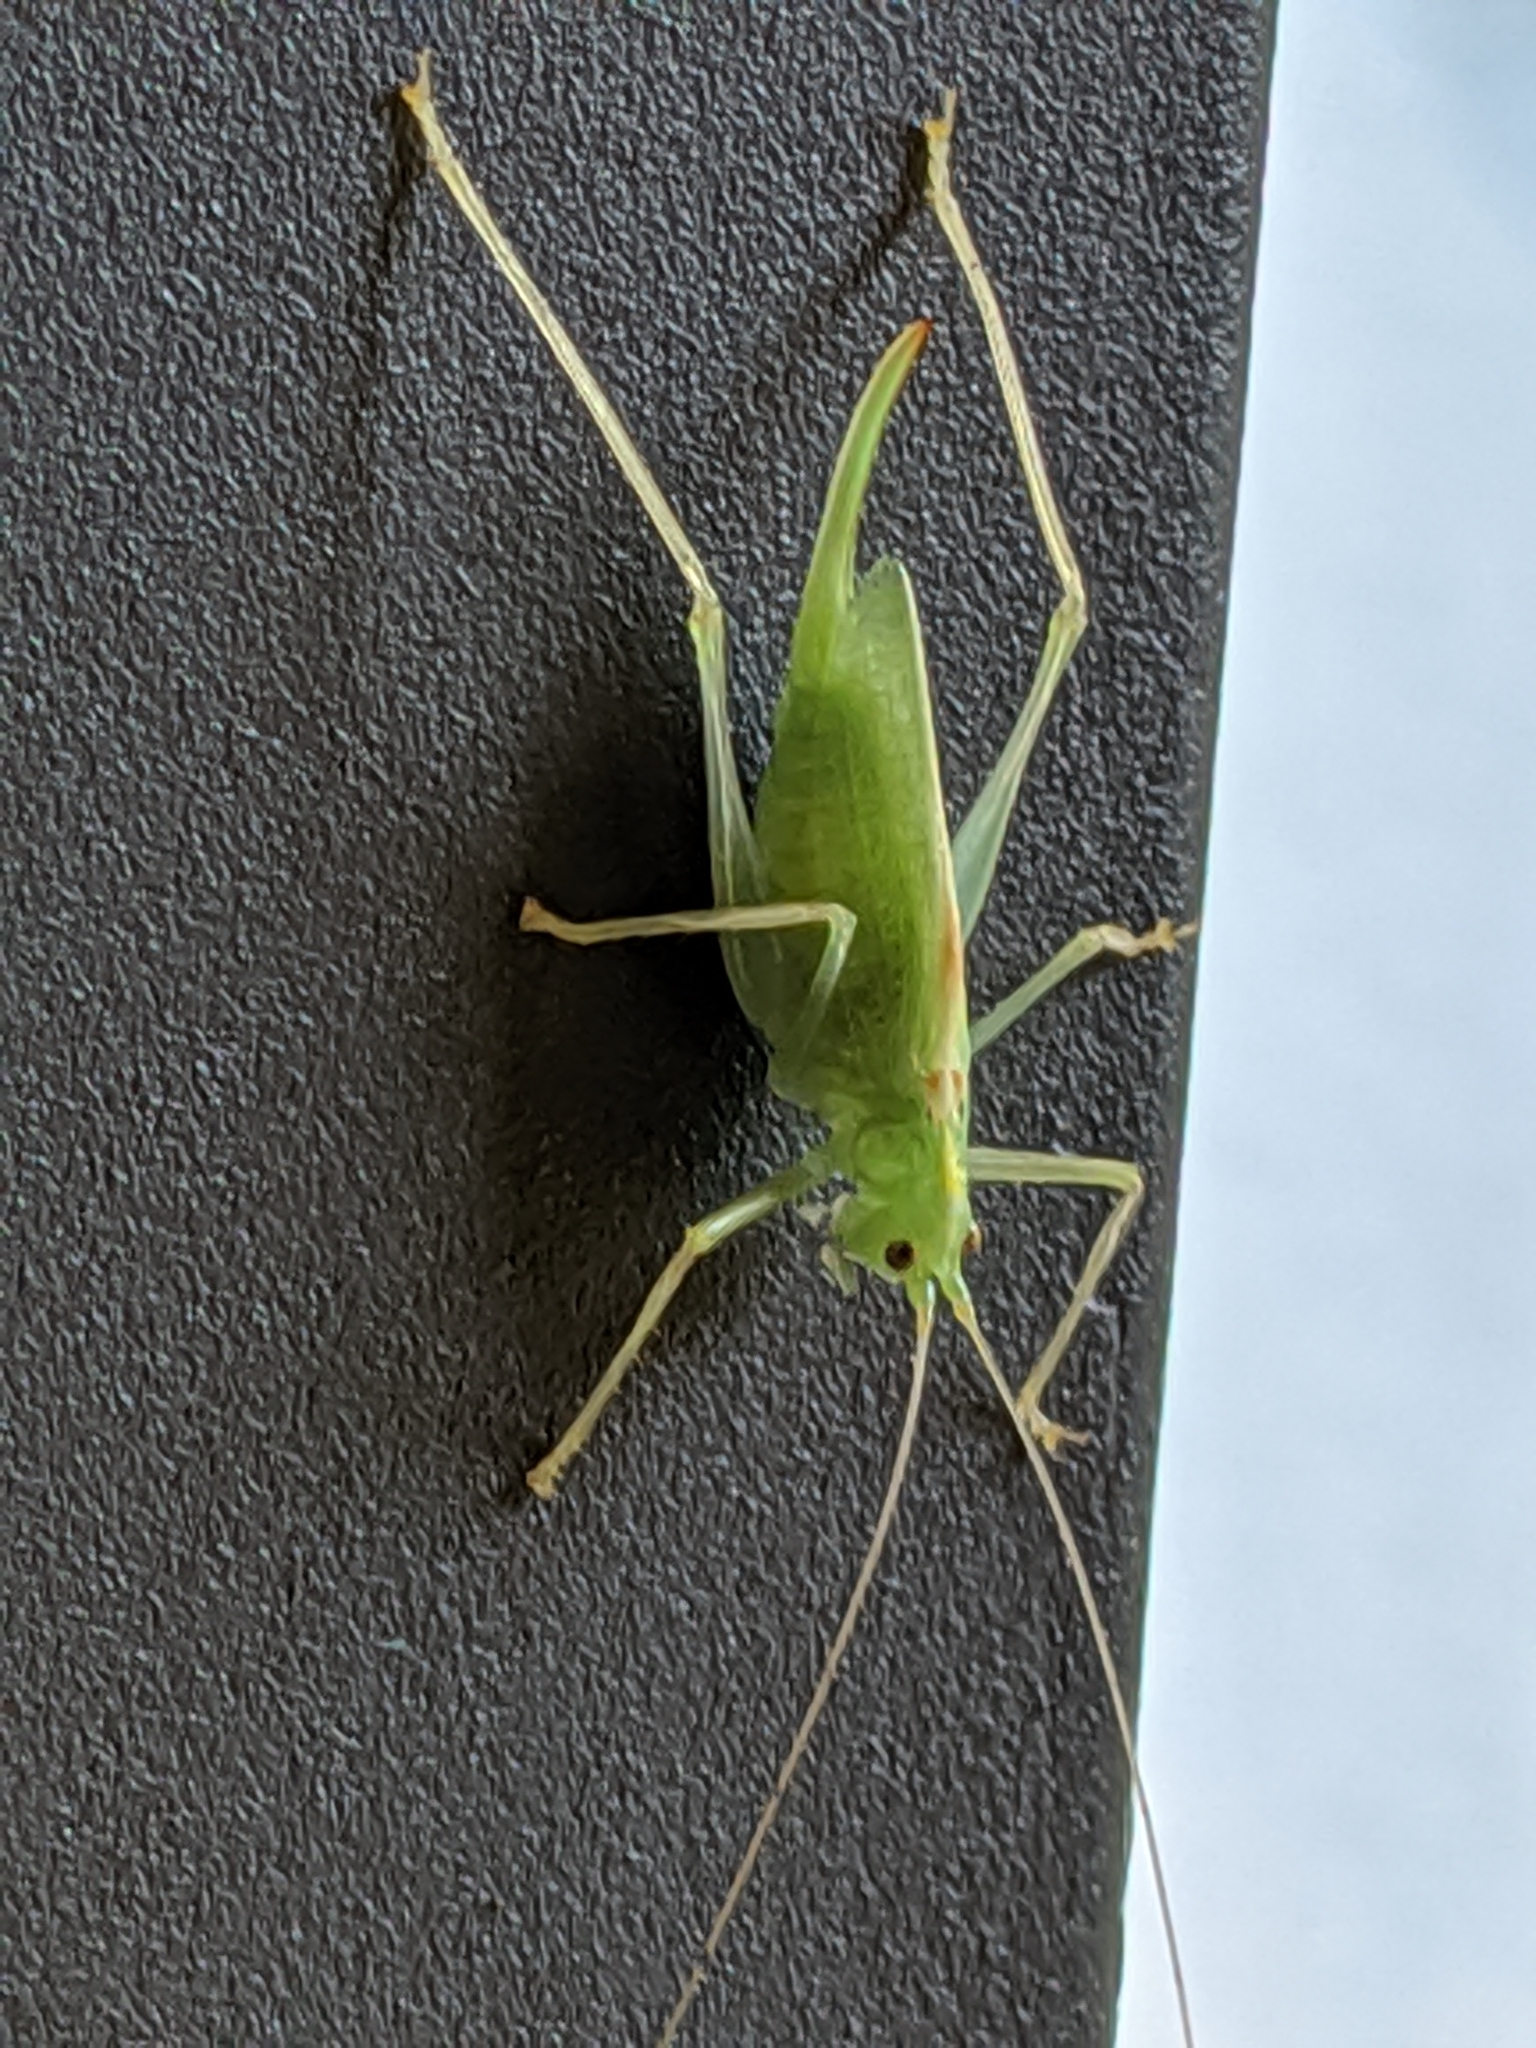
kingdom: Animalia
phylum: Arthropoda
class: Insecta
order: Orthoptera
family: Tettigoniidae
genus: Meconema
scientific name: Meconema thalassinum
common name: Oak bush-cricket
